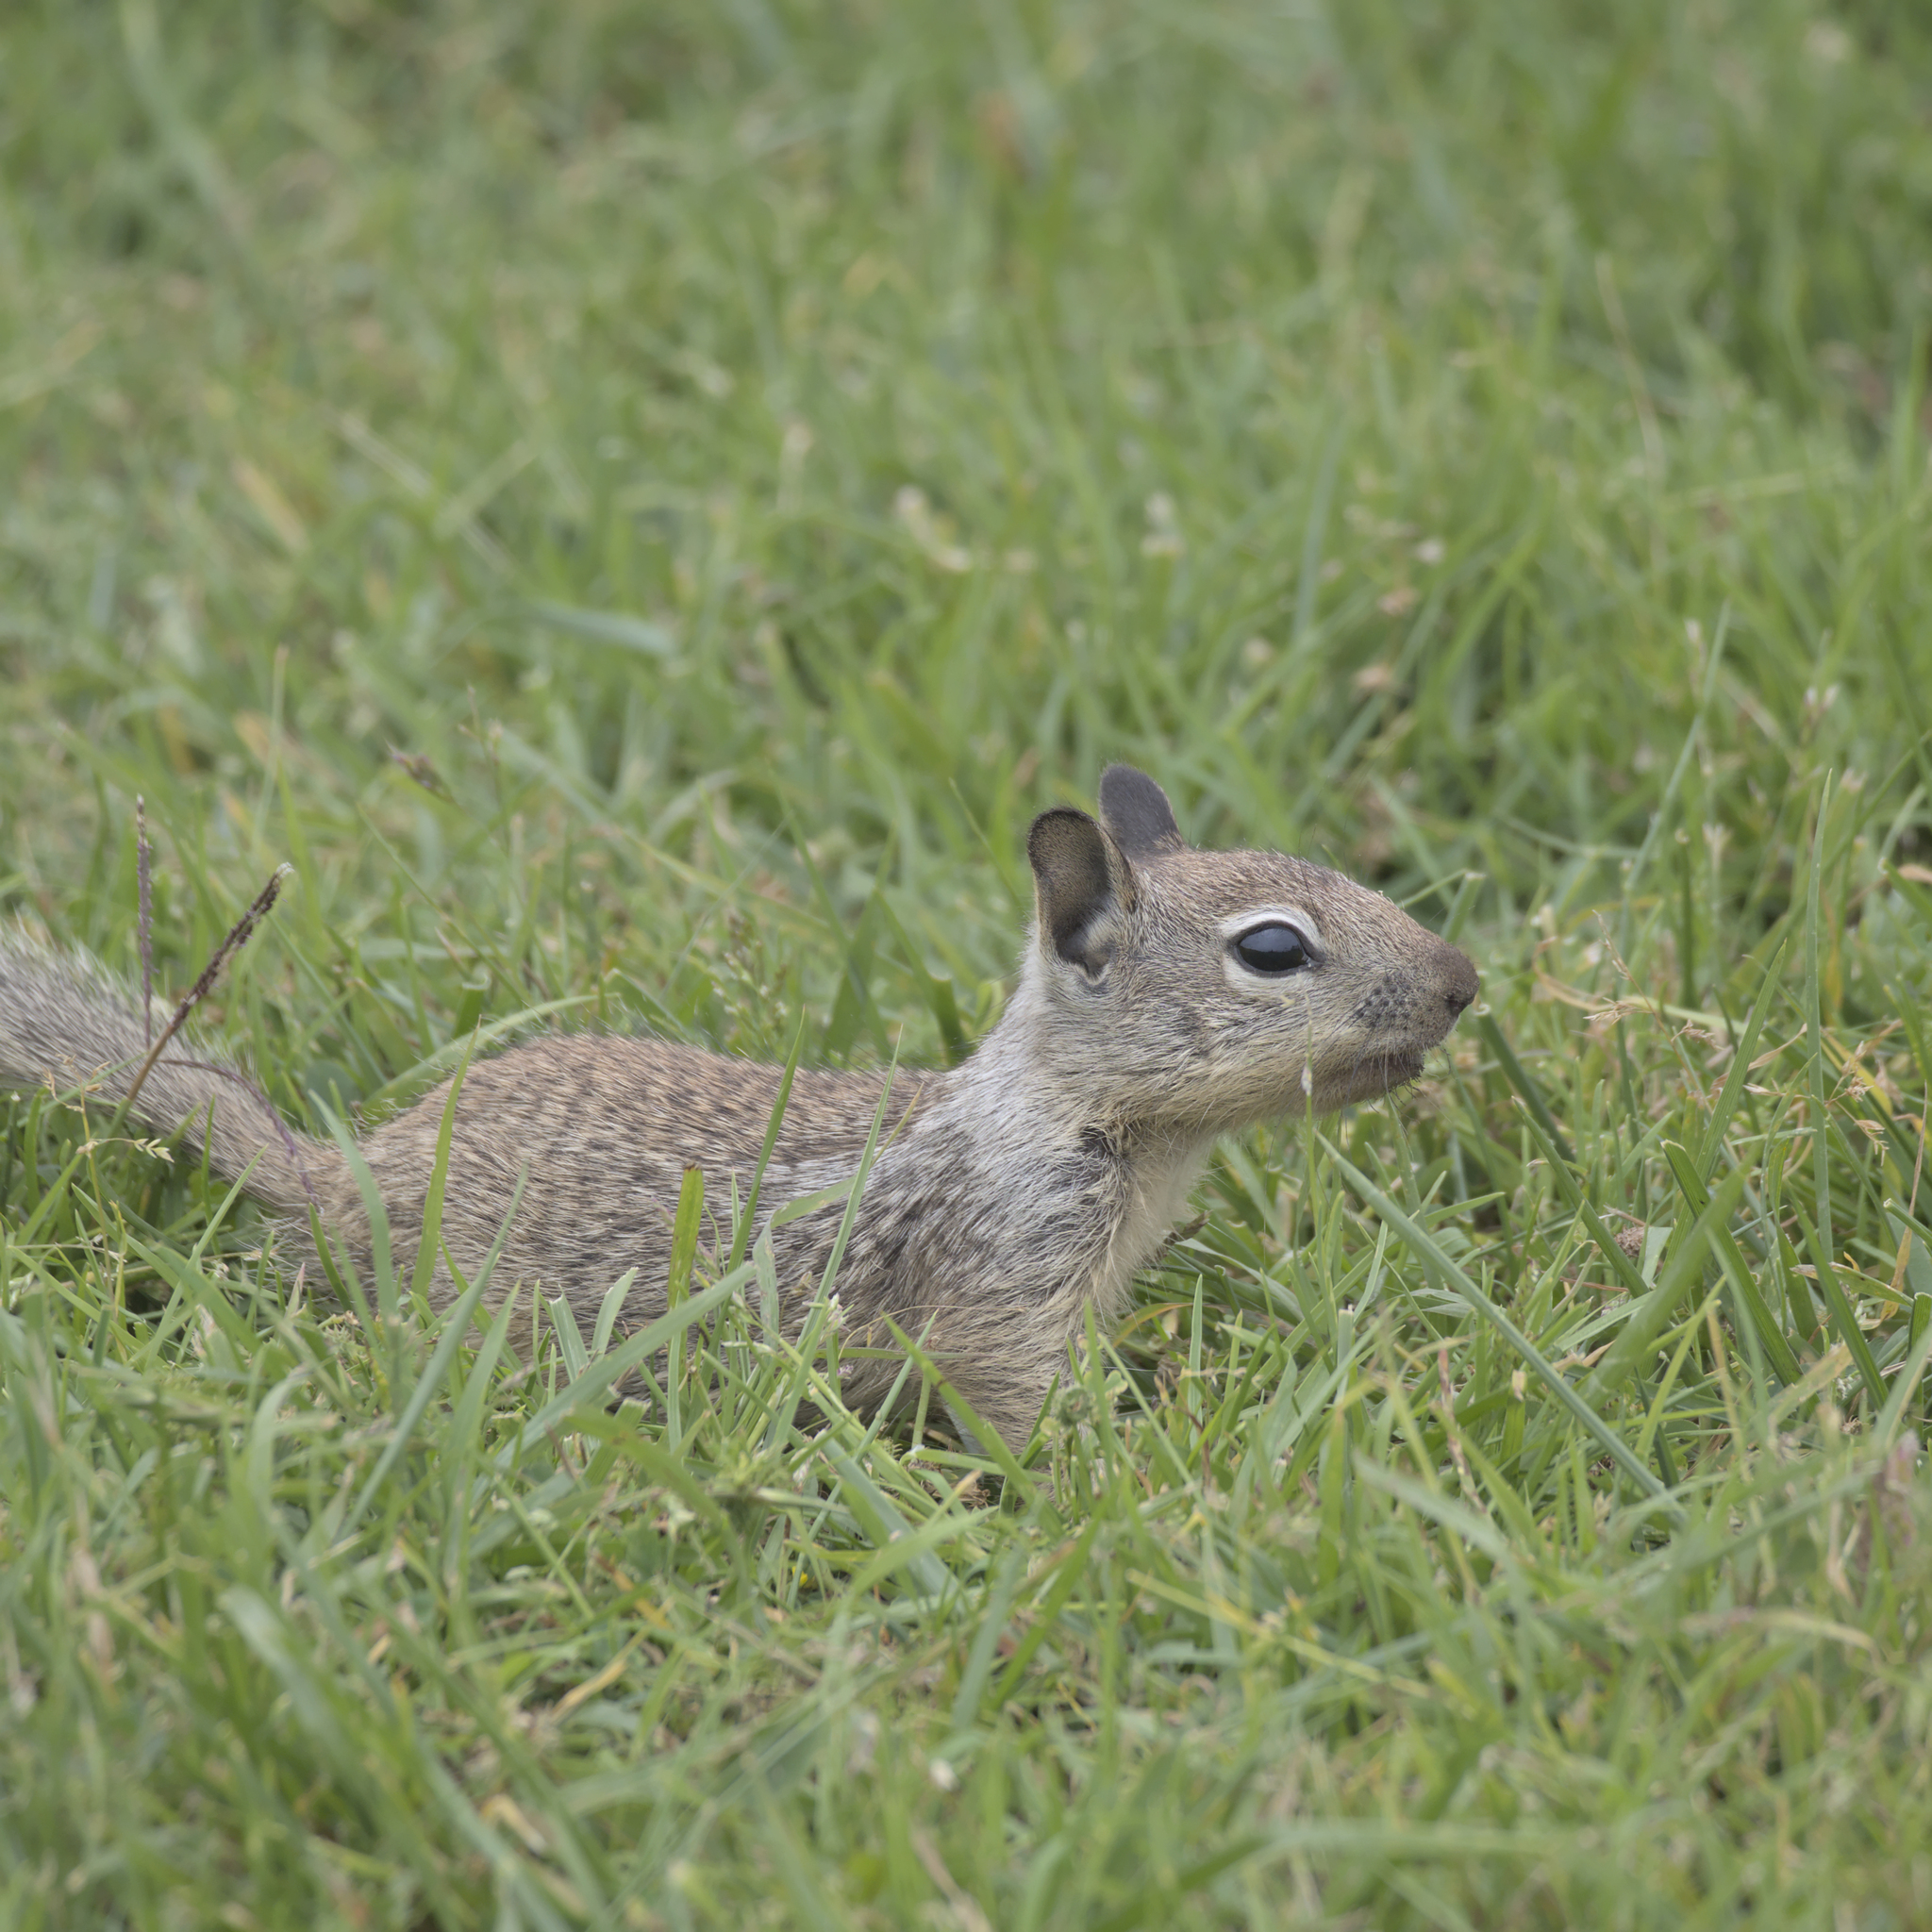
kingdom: Animalia
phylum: Chordata
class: Mammalia
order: Rodentia
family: Sciuridae
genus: Otospermophilus
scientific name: Otospermophilus beecheyi
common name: California ground squirrel
